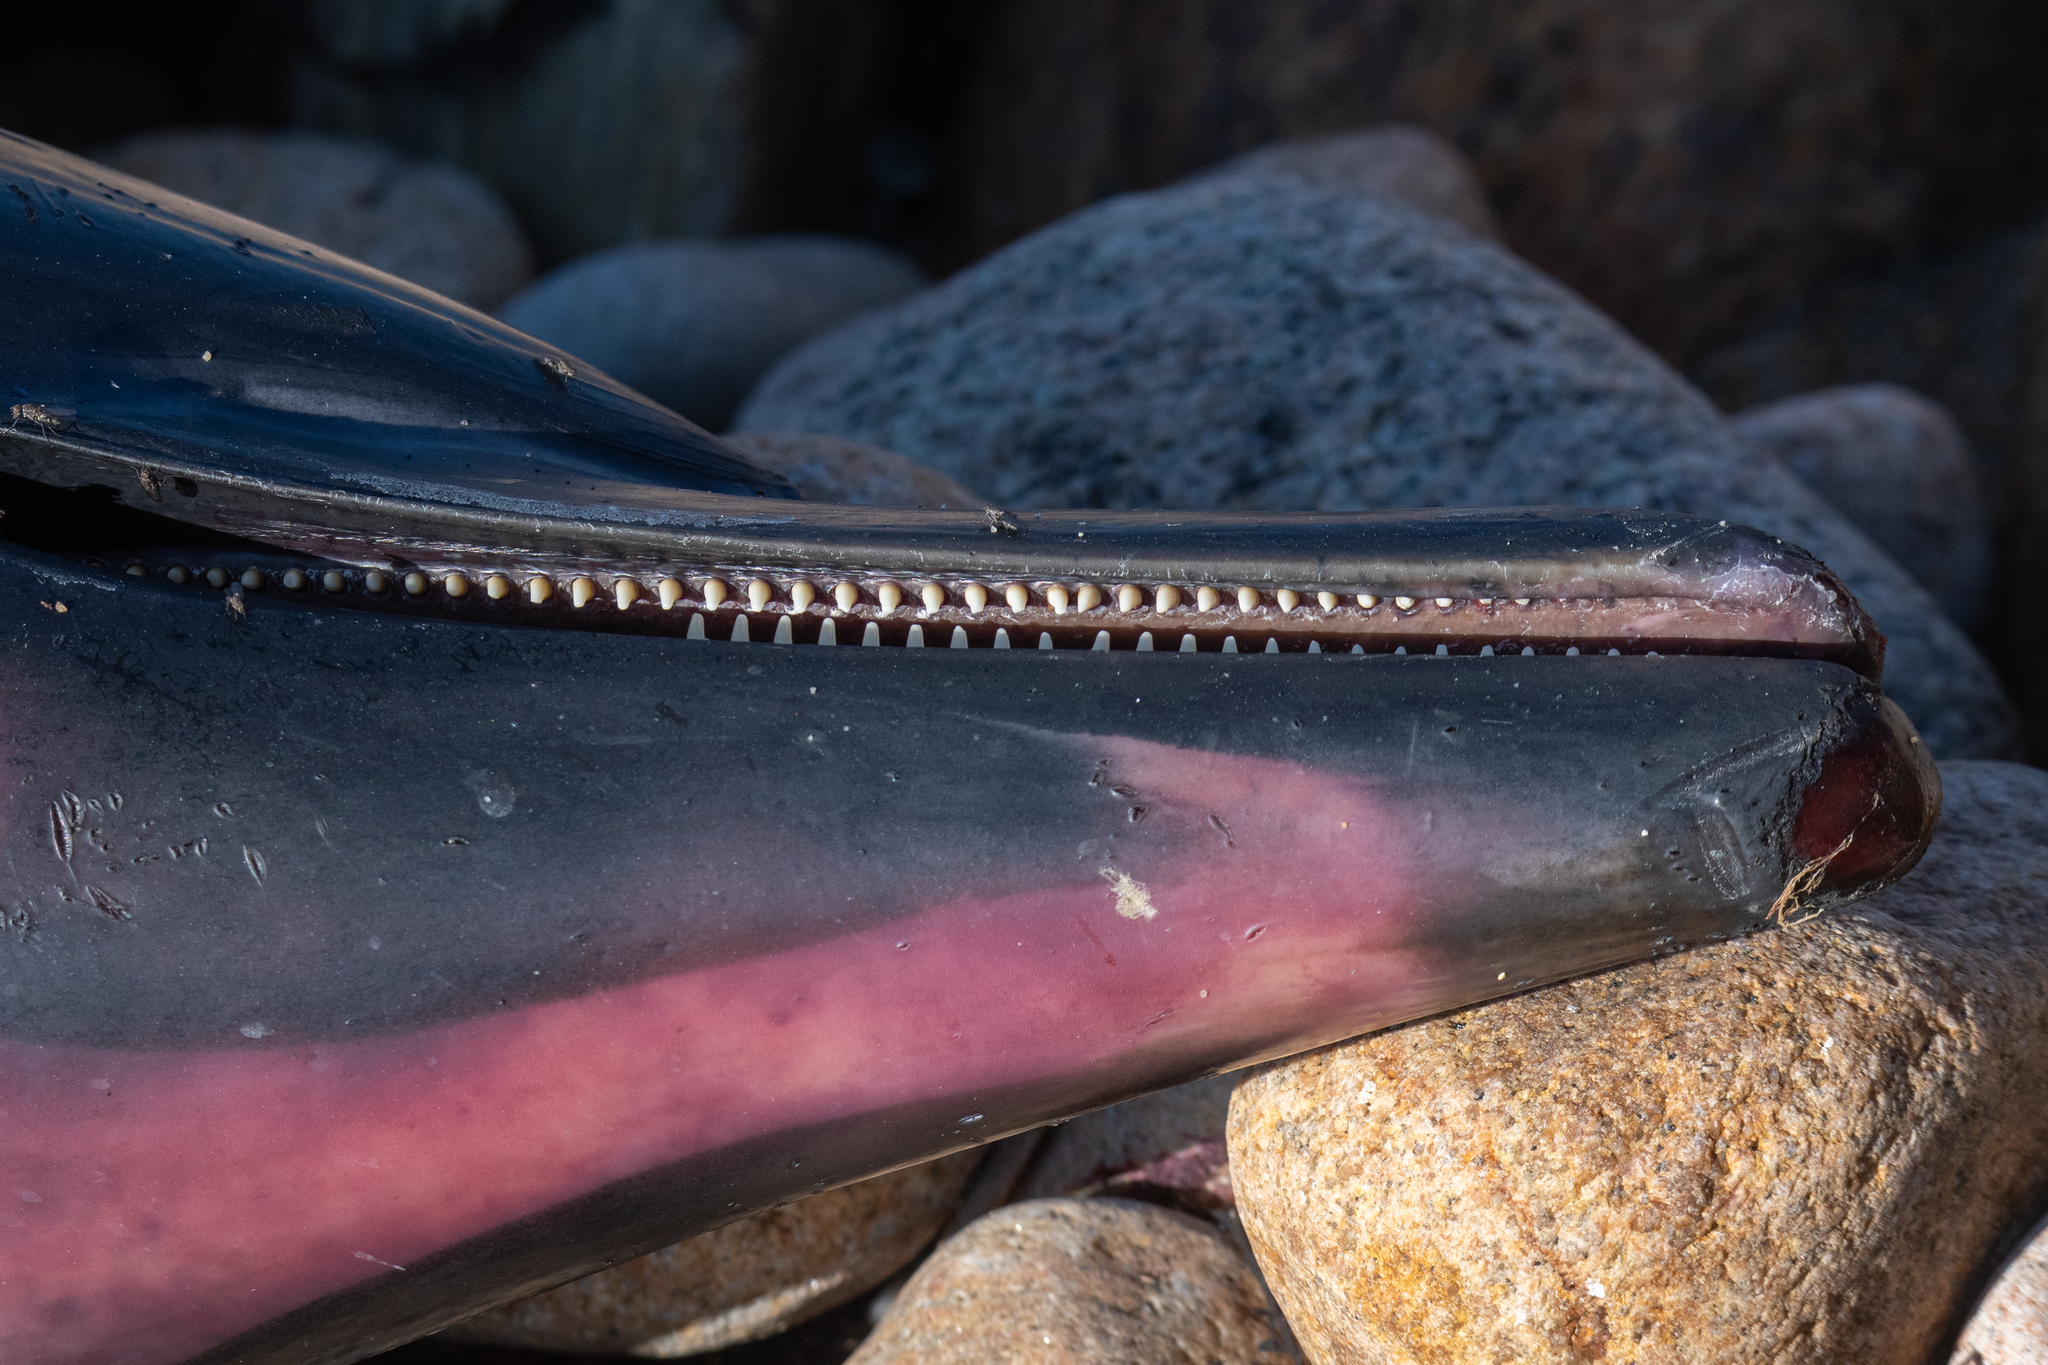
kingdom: Animalia
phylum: Chordata
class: Mammalia
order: Cetacea
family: Delphinidae
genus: Delphinus
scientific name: Delphinus delphis
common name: Common dolphin
